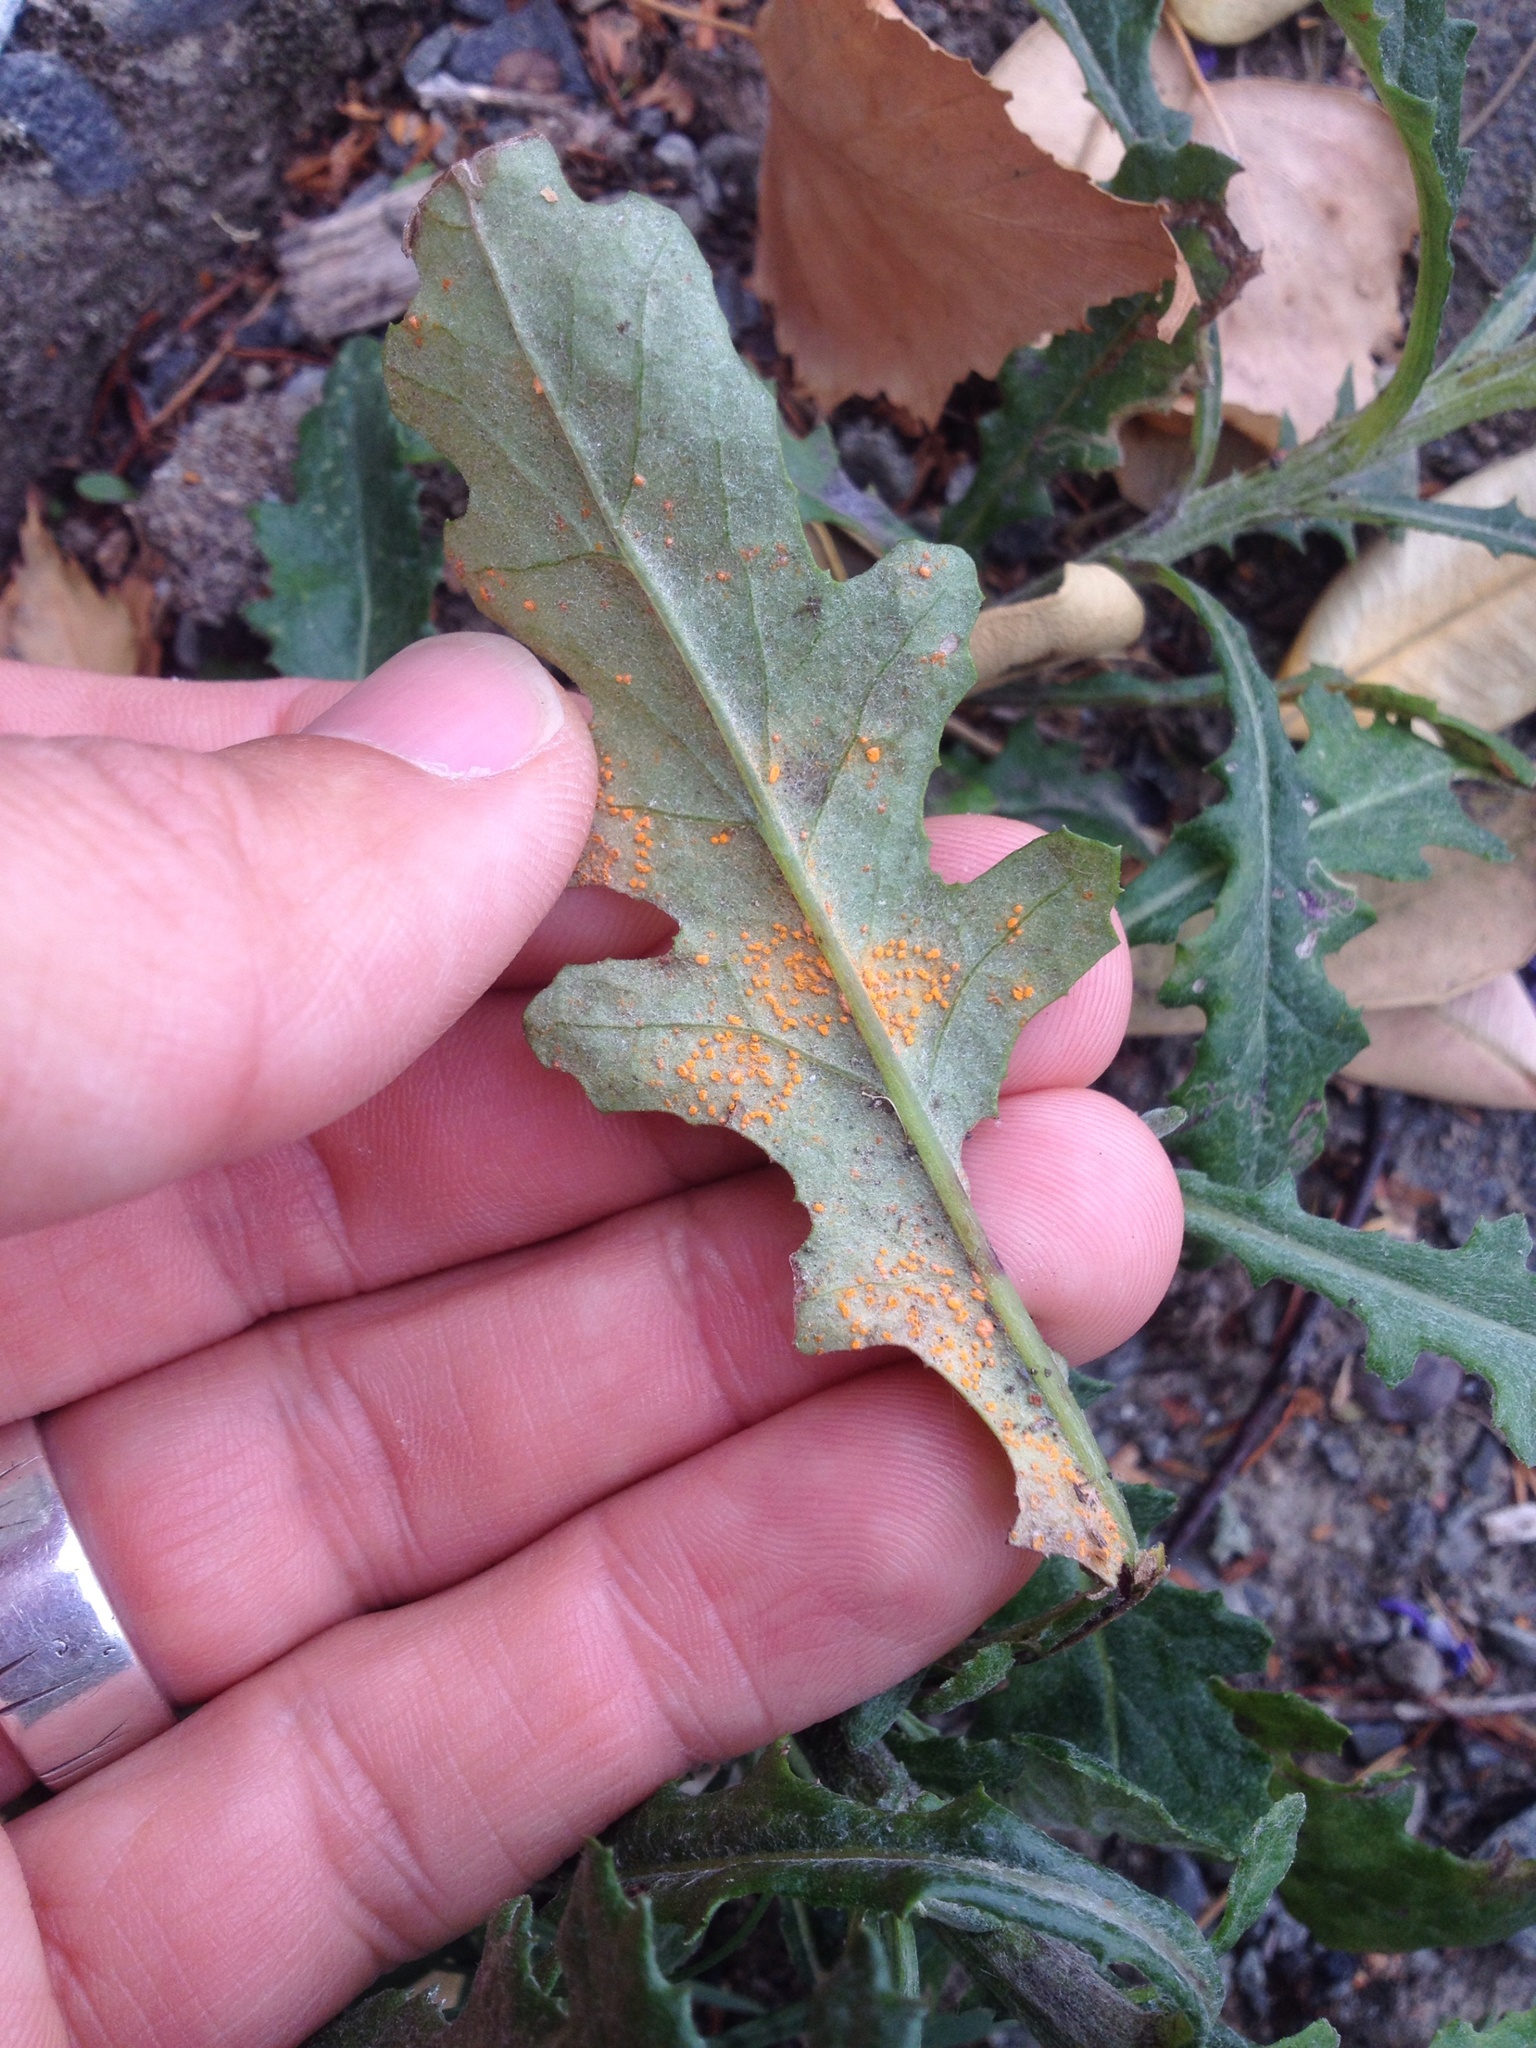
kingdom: Fungi
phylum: Basidiomycota
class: Pucciniomycetes
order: Pucciniales
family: Coleosporiaceae
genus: Coleosporium
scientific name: Coleosporium tussilaginis
